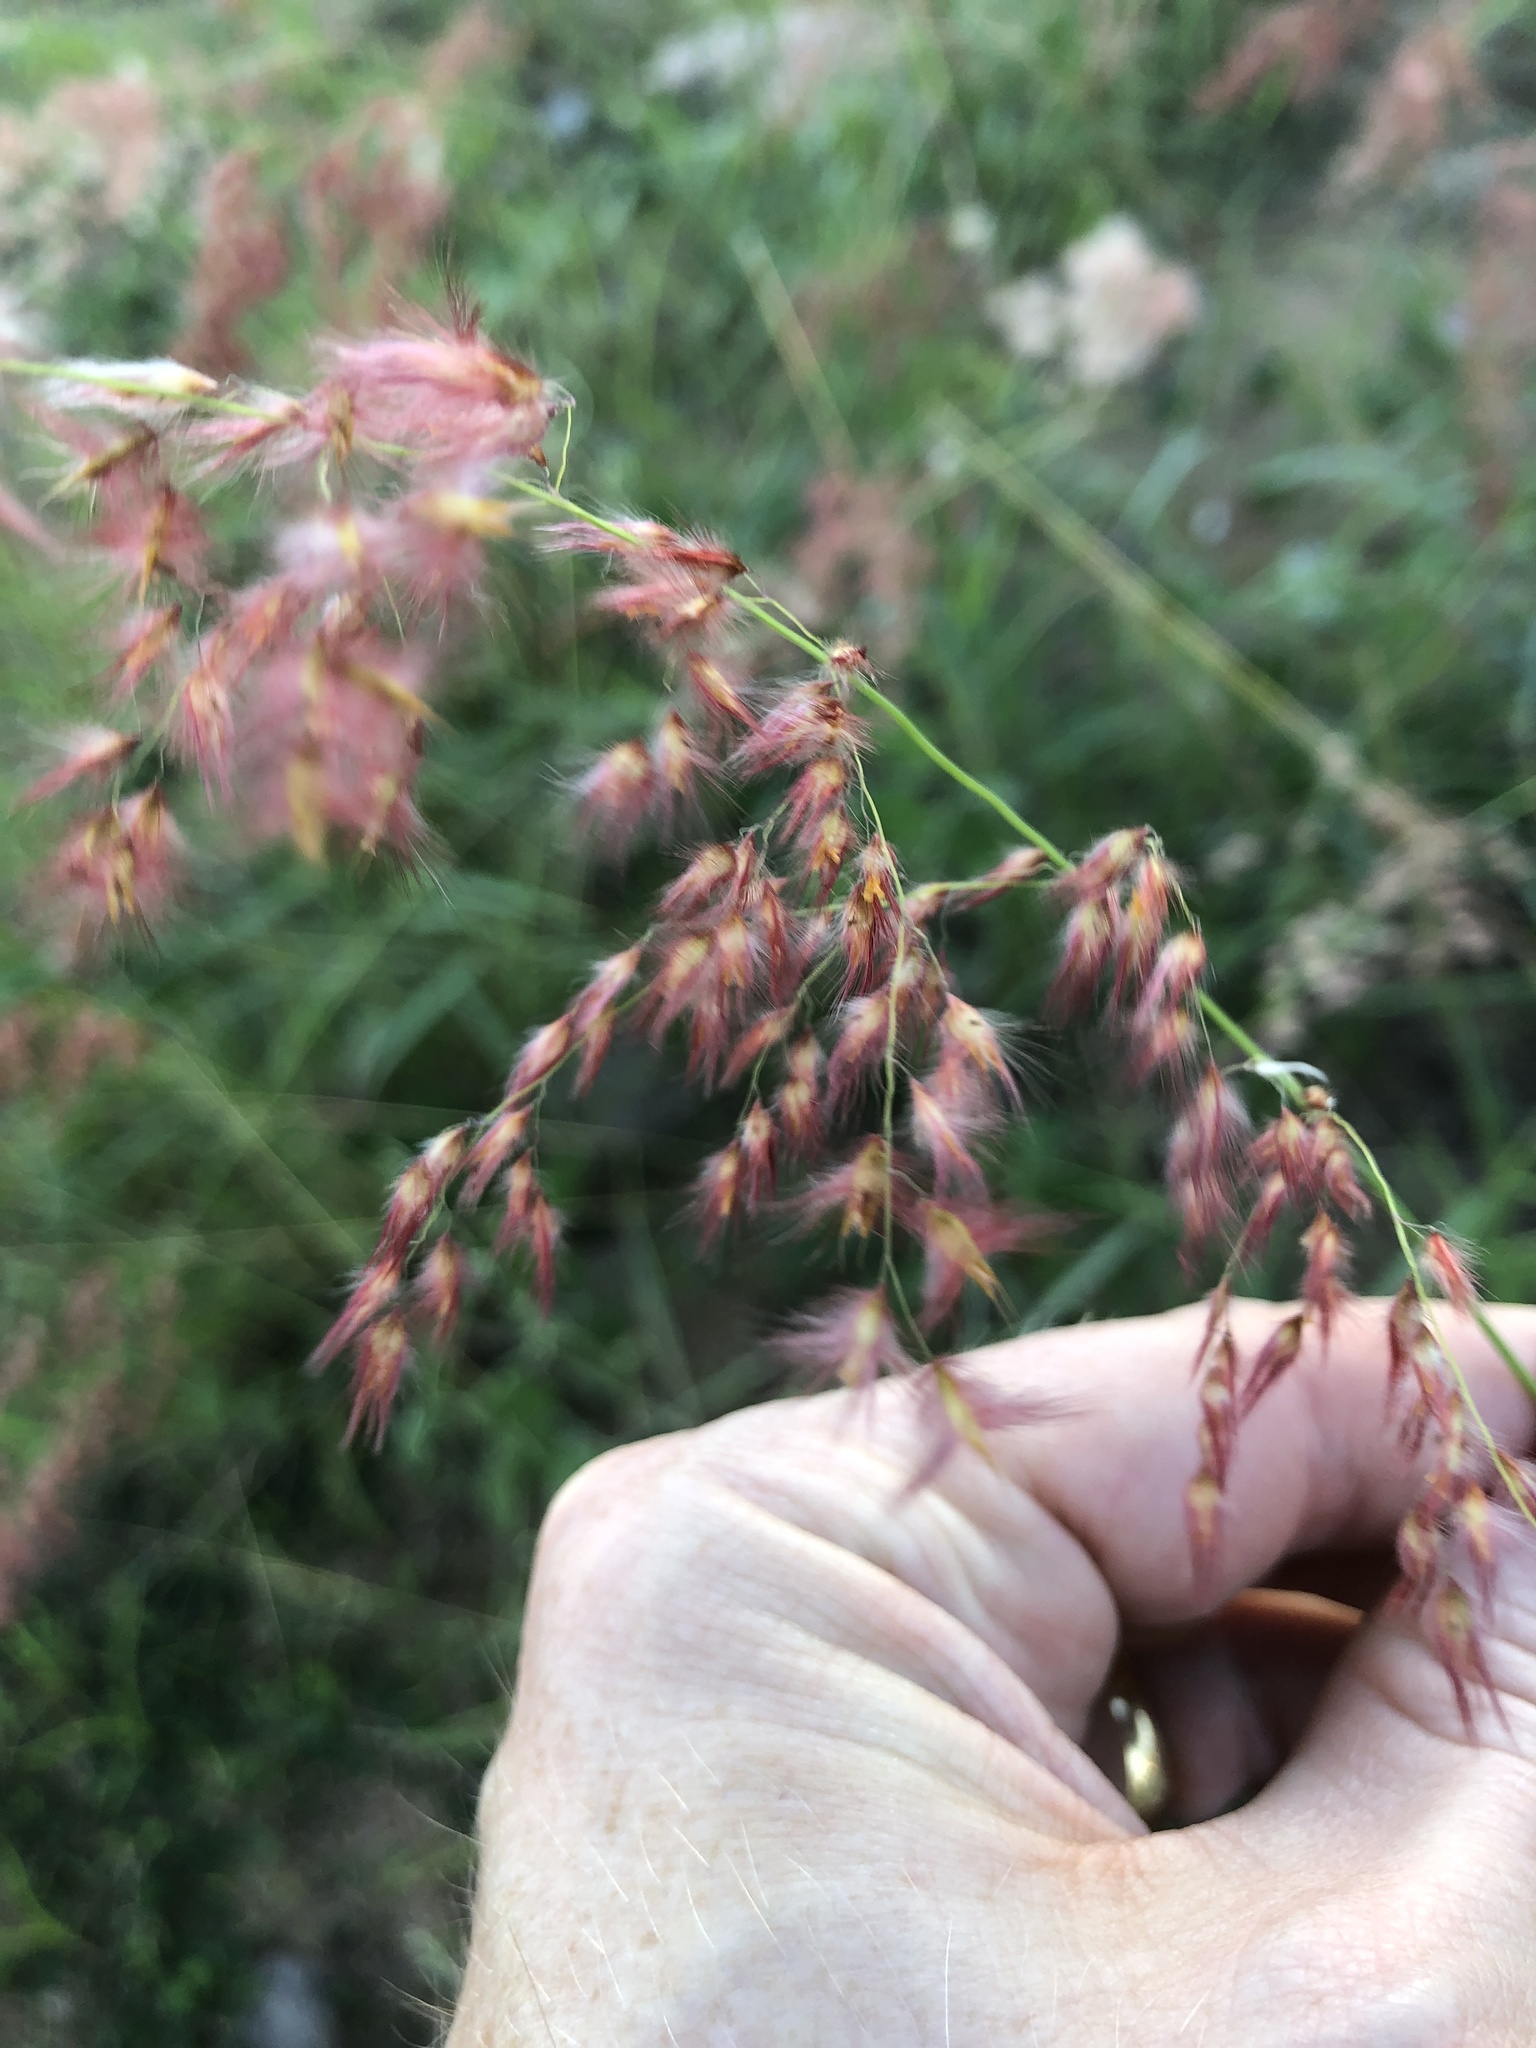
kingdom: Plantae
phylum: Tracheophyta
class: Liliopsida
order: Poales
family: Poaceae
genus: Melinis
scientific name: Melinis repens
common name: Rose natal grass
